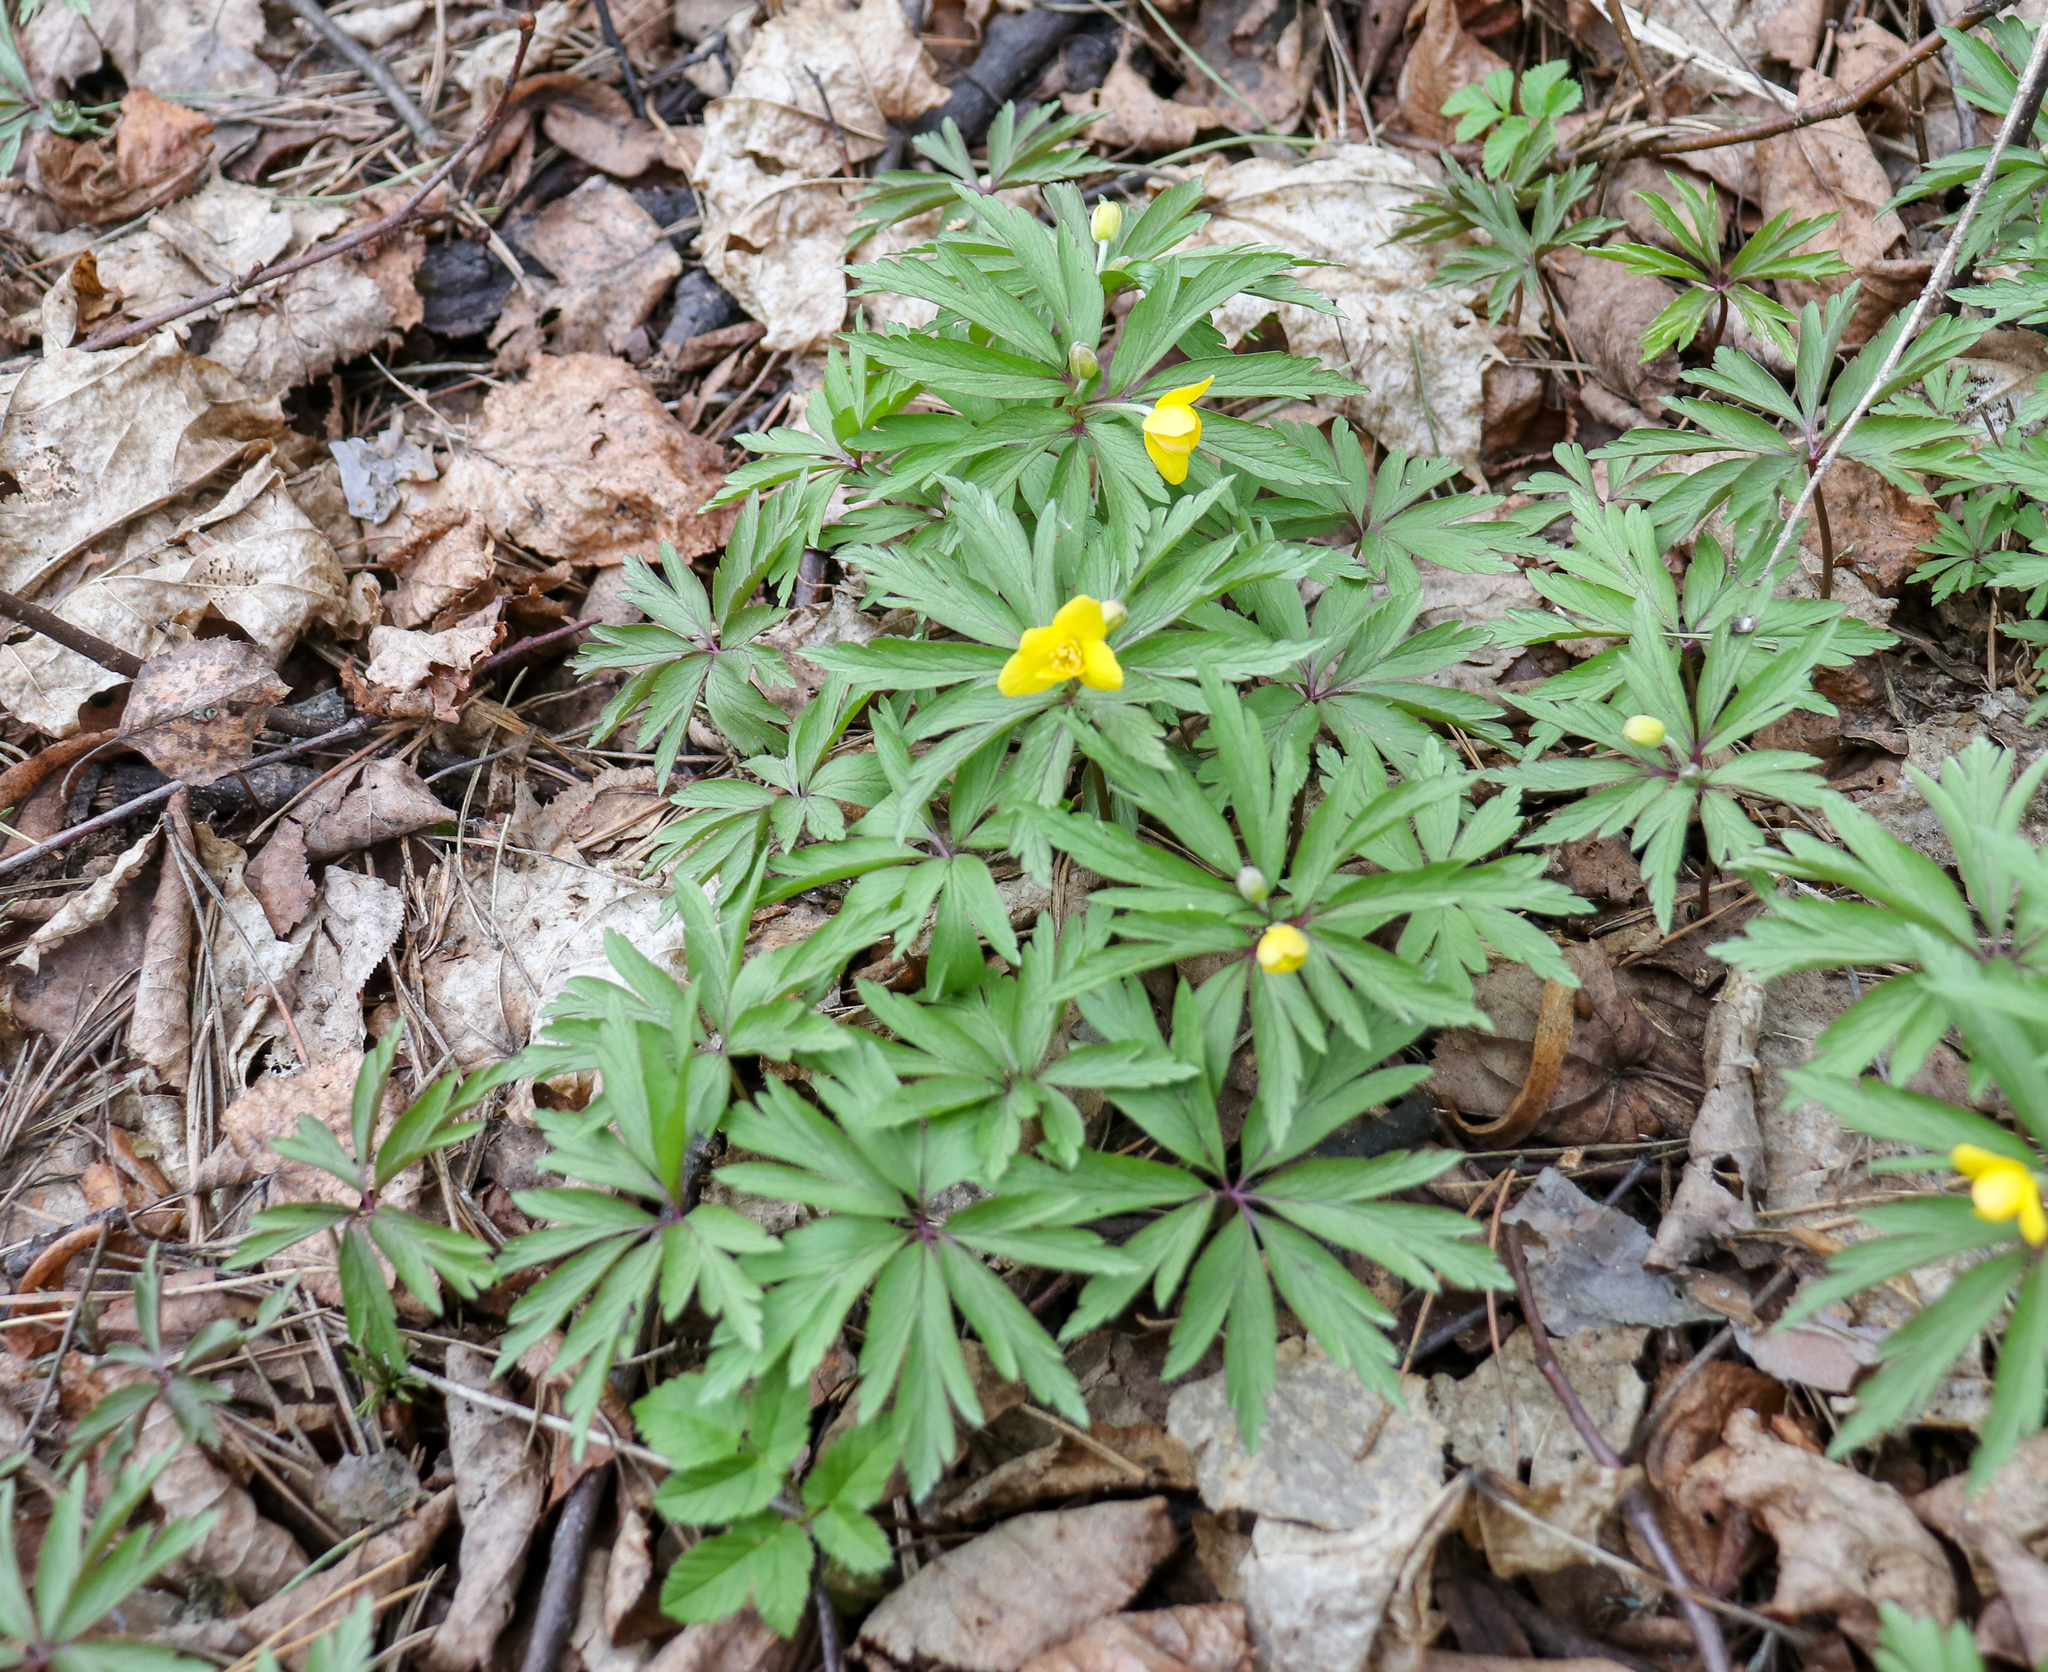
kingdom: Plantae
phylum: Tracheophyta
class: Magnoliopsida
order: Ranunculales
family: Ranunculaceae
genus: Anemone
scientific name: Anemone ranunculoides
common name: Yellow anemone
